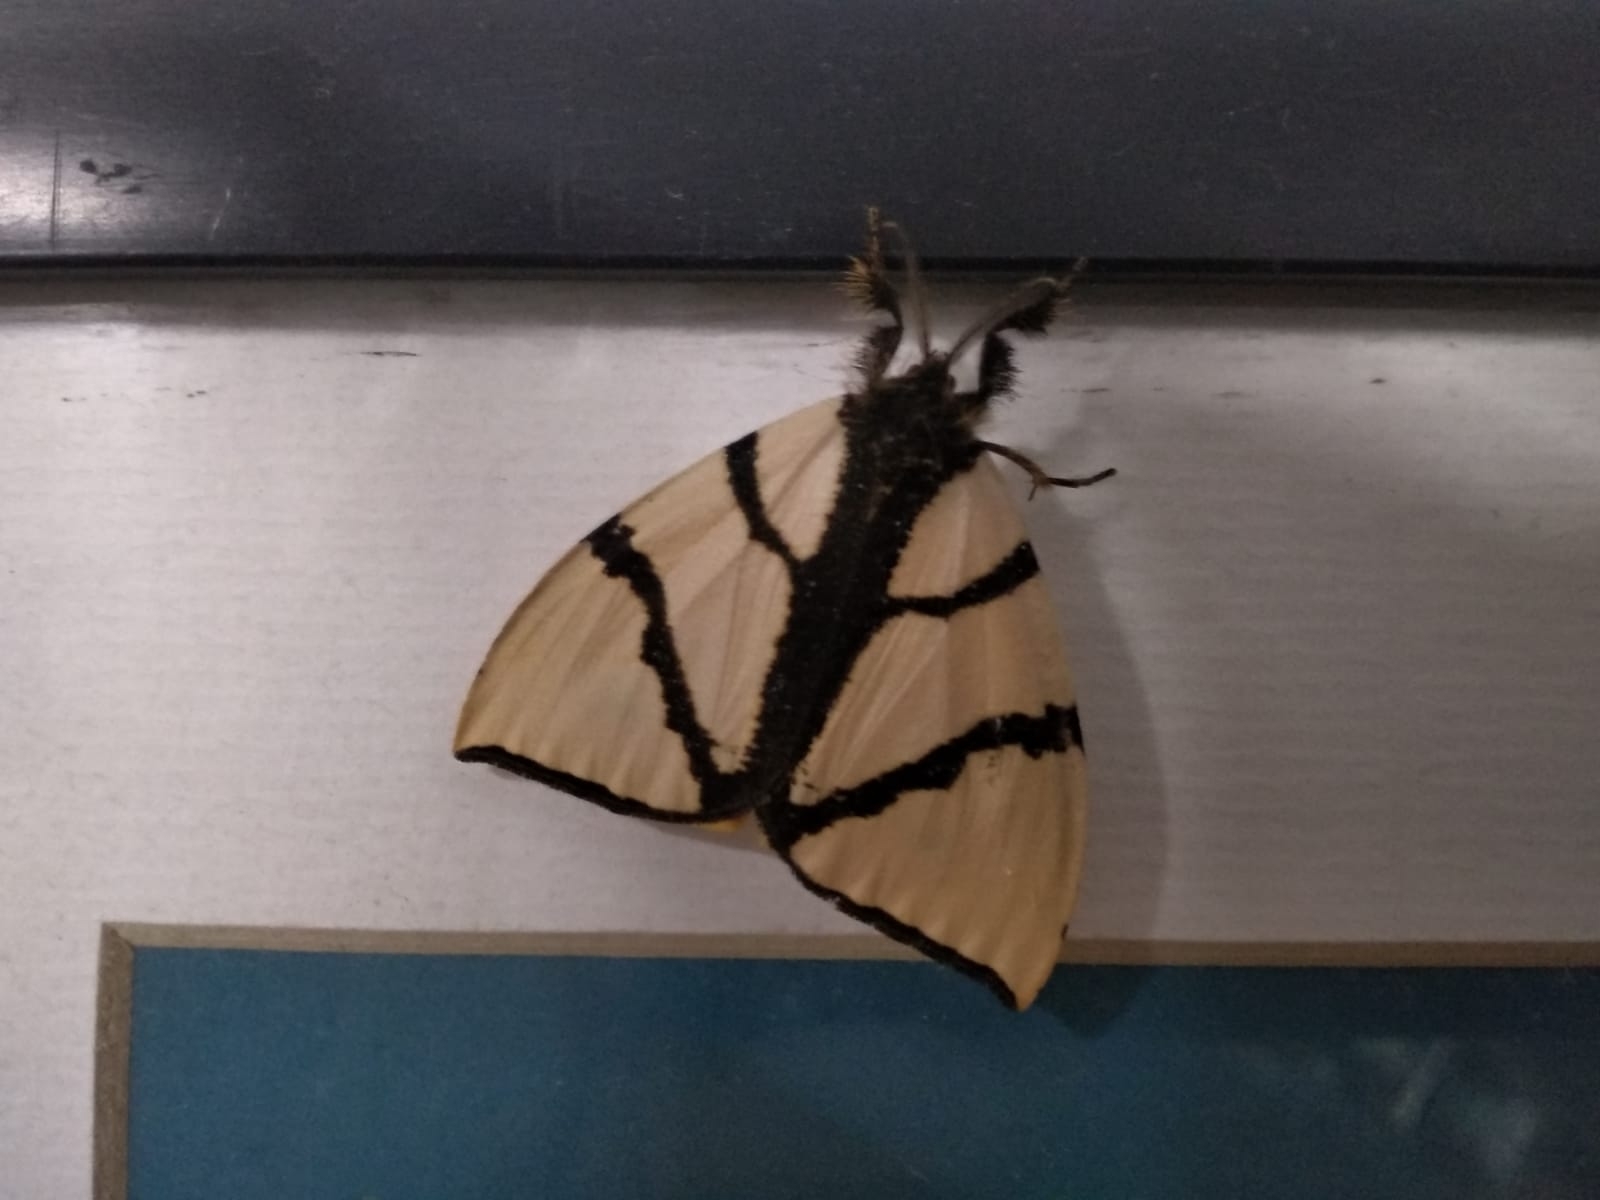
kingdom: Animalia
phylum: Arthropoda
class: Insecta
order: Lepidoptera
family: Erebidae
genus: Numenes
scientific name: Numenes siletti
